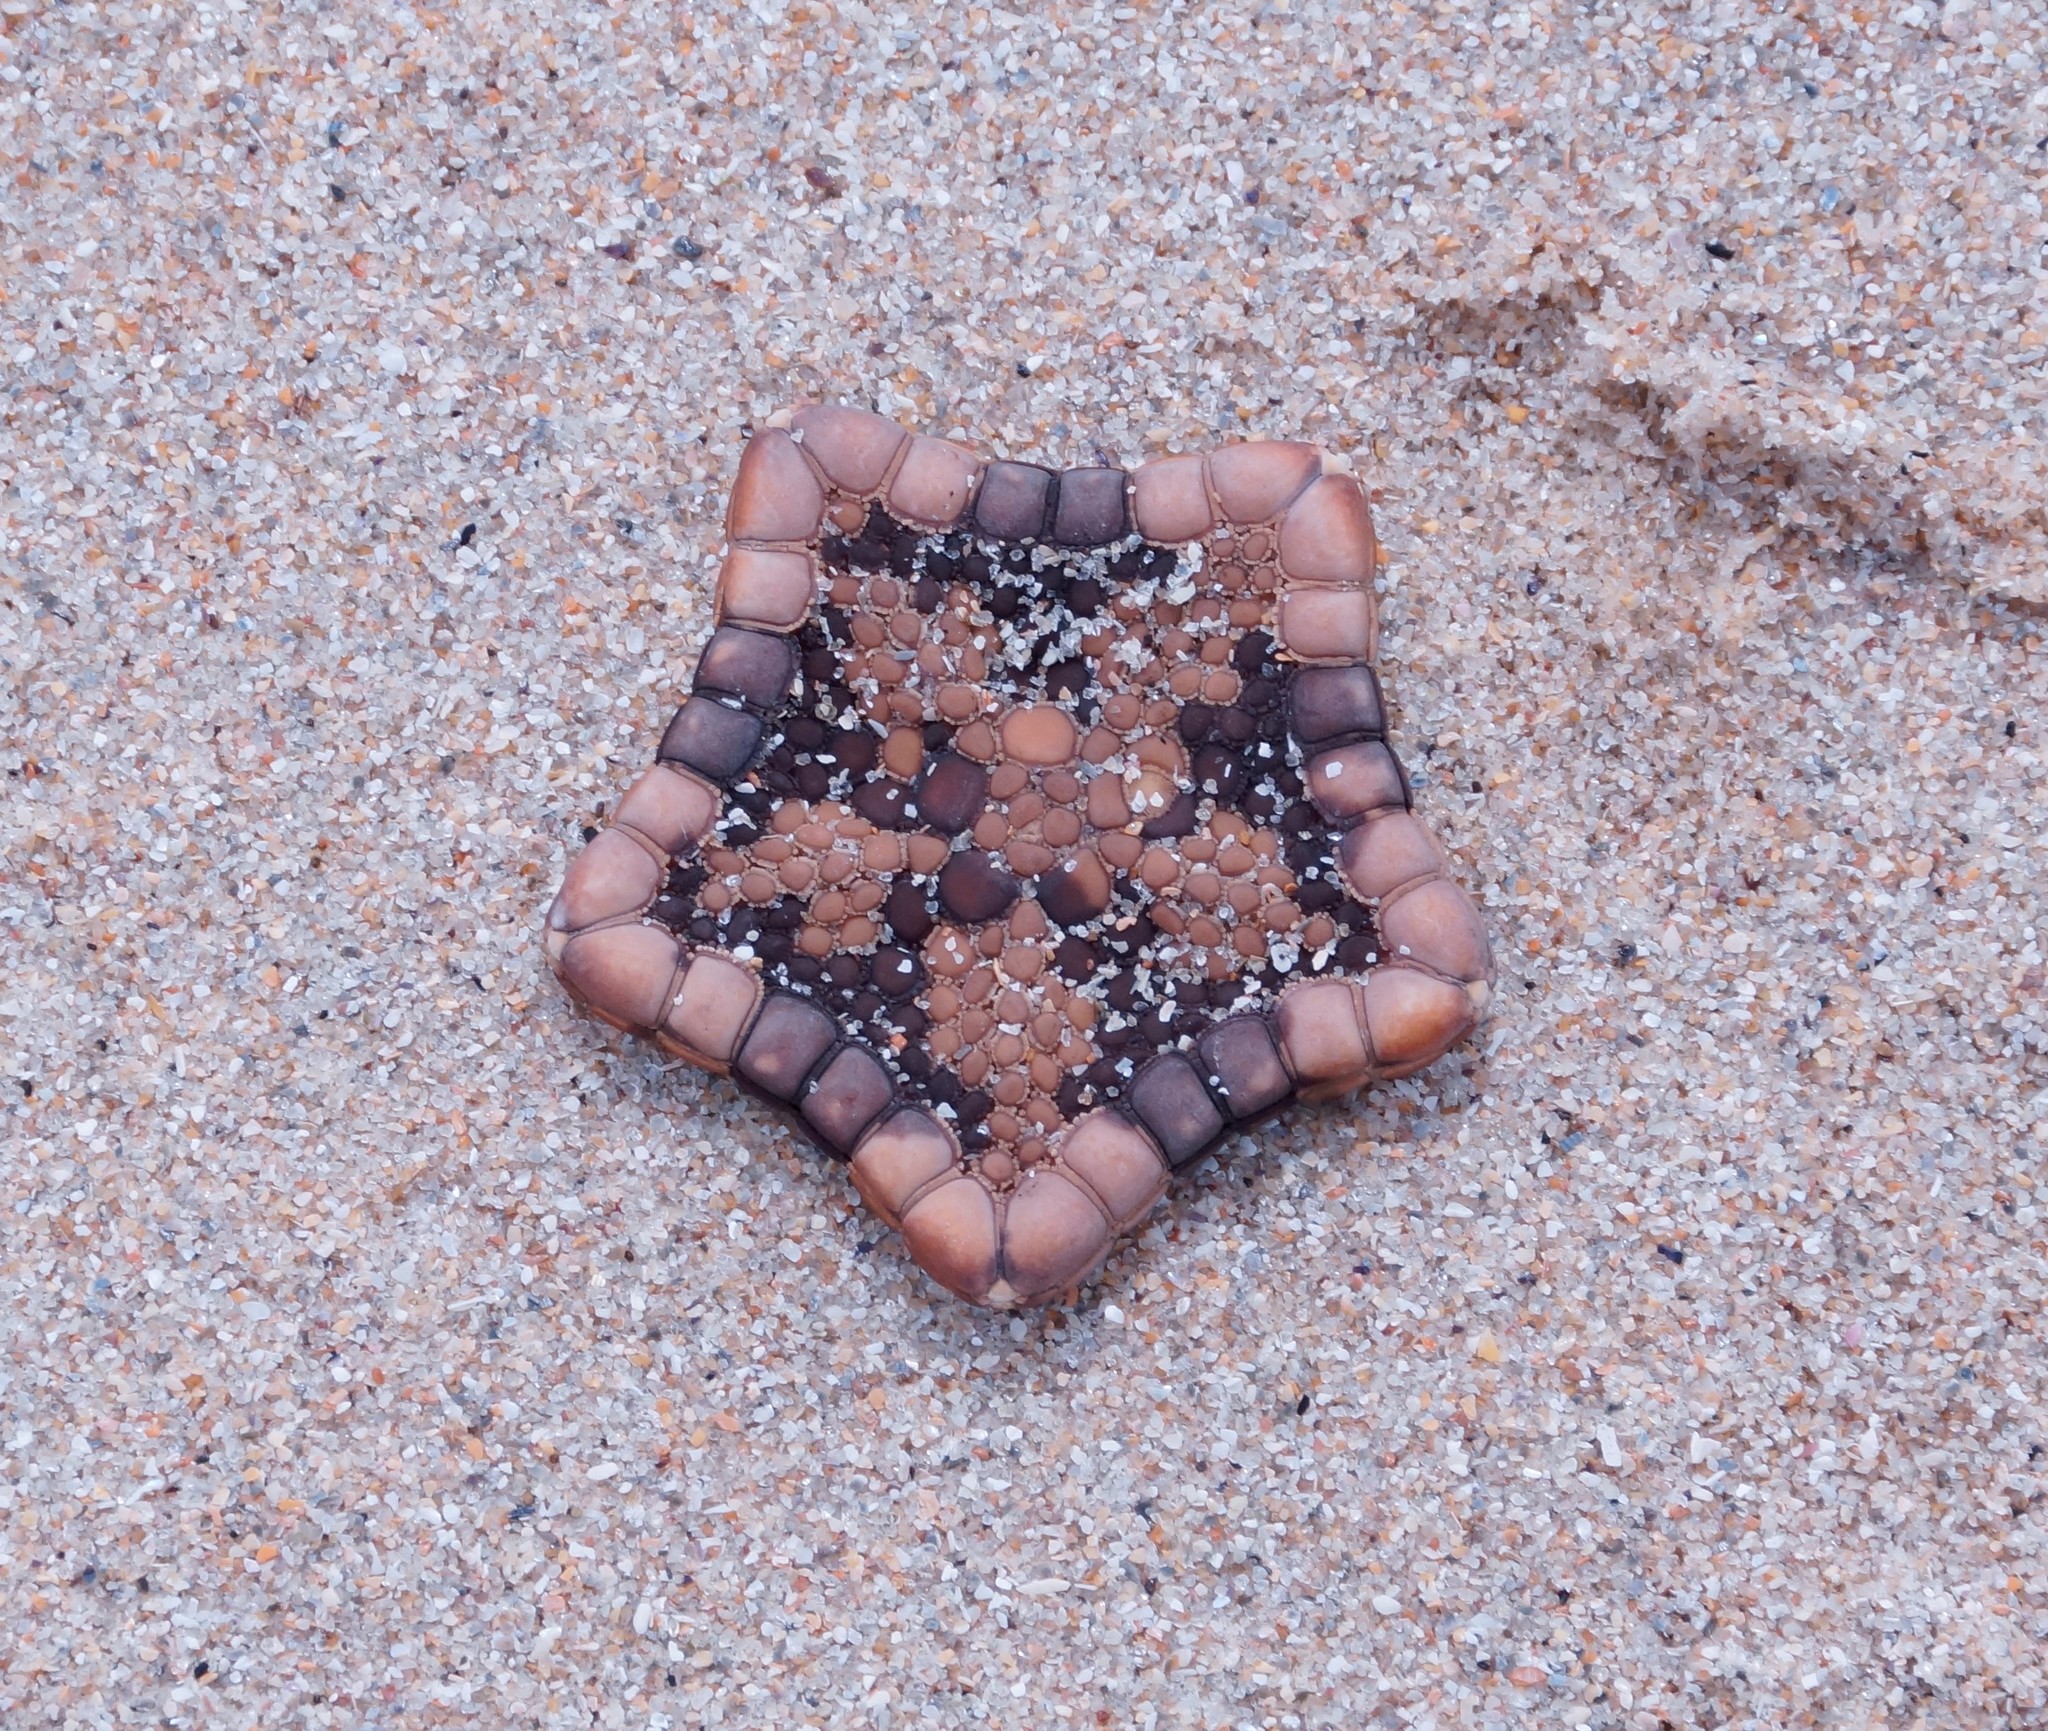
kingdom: Animalia
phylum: Echinodermata
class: Asteroidea
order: Valvatida
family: Goniasteridae
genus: Tosia
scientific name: Tosia neossia
